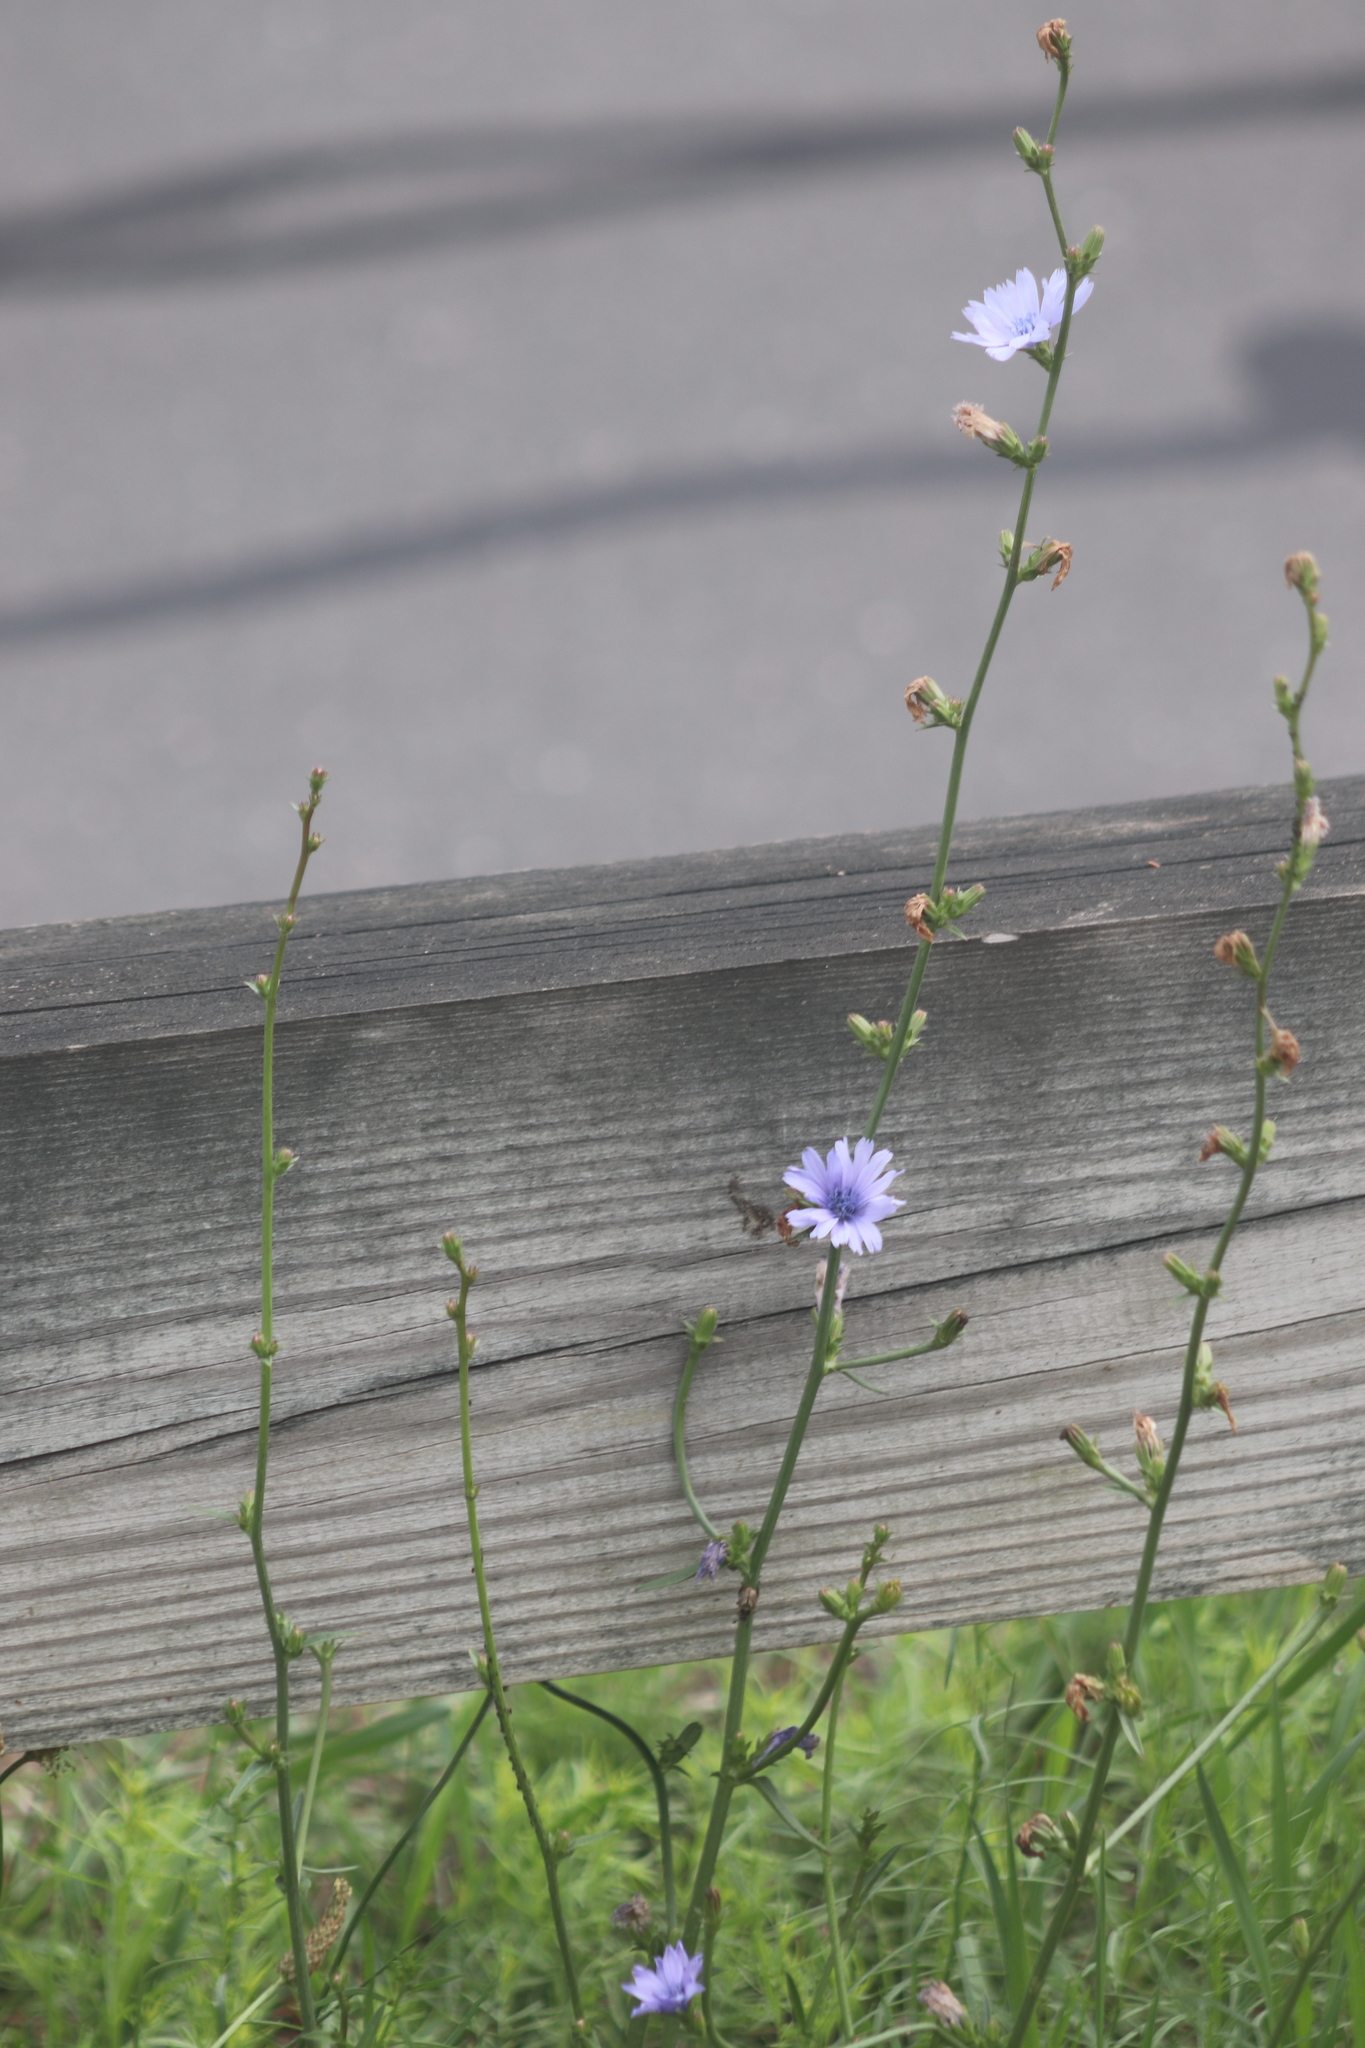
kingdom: Plantae
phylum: Tracheophyta
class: Magnoliopsida
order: Asterales
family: Asteraceae
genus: Cichorium
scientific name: Cichorium intybus
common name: Chicory
